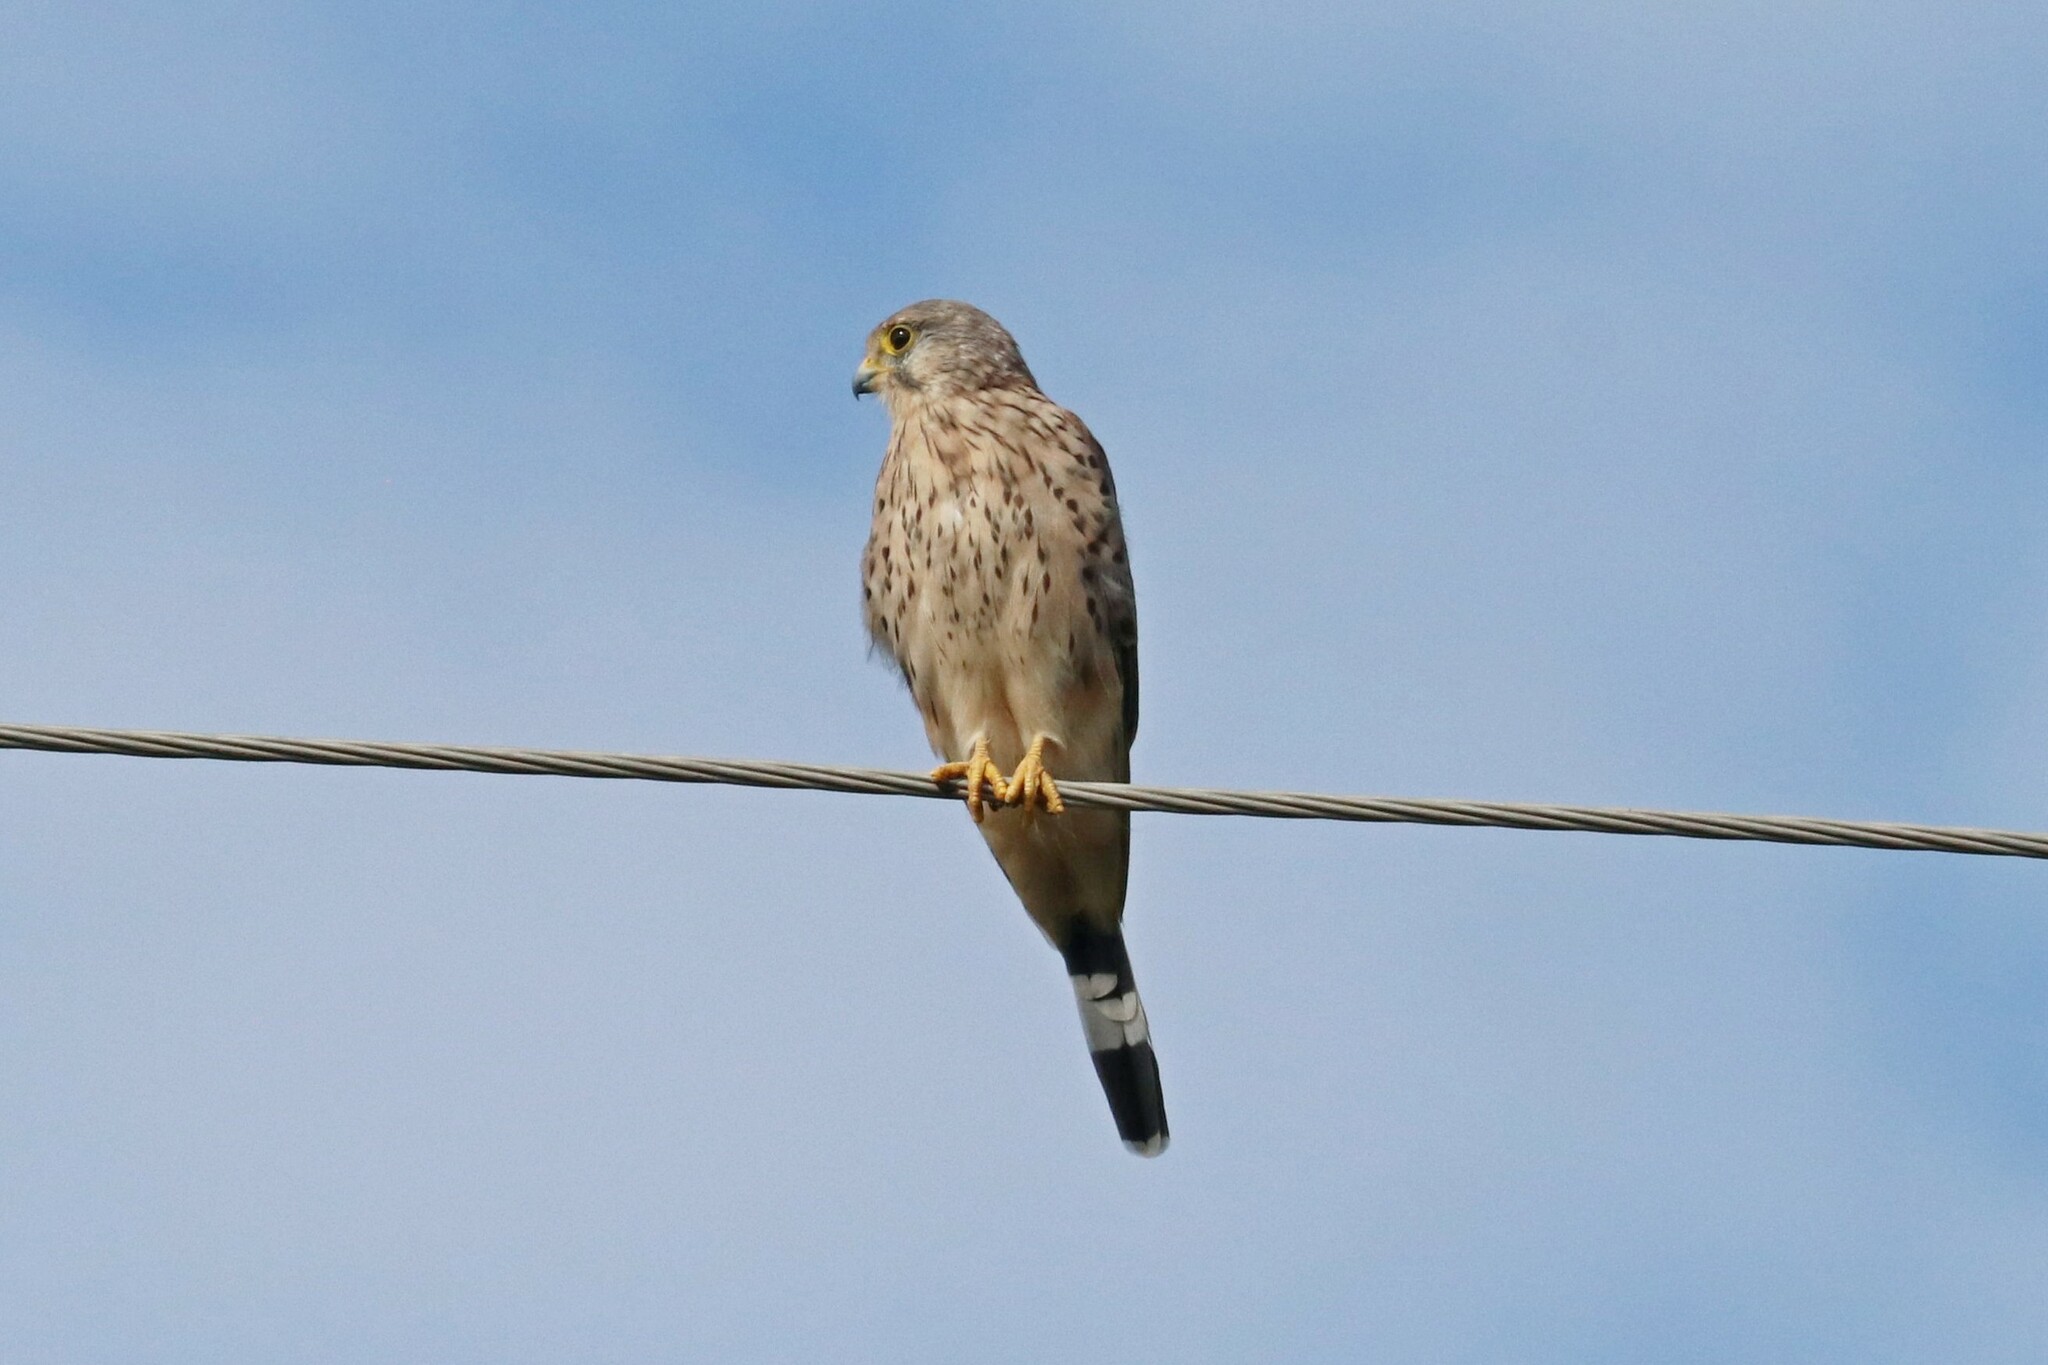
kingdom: Animalia
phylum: Chordata
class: Aves
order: Falconiformes
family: Falconidae
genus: Falco
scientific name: Falco tinnunculus
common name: Common kestrel
